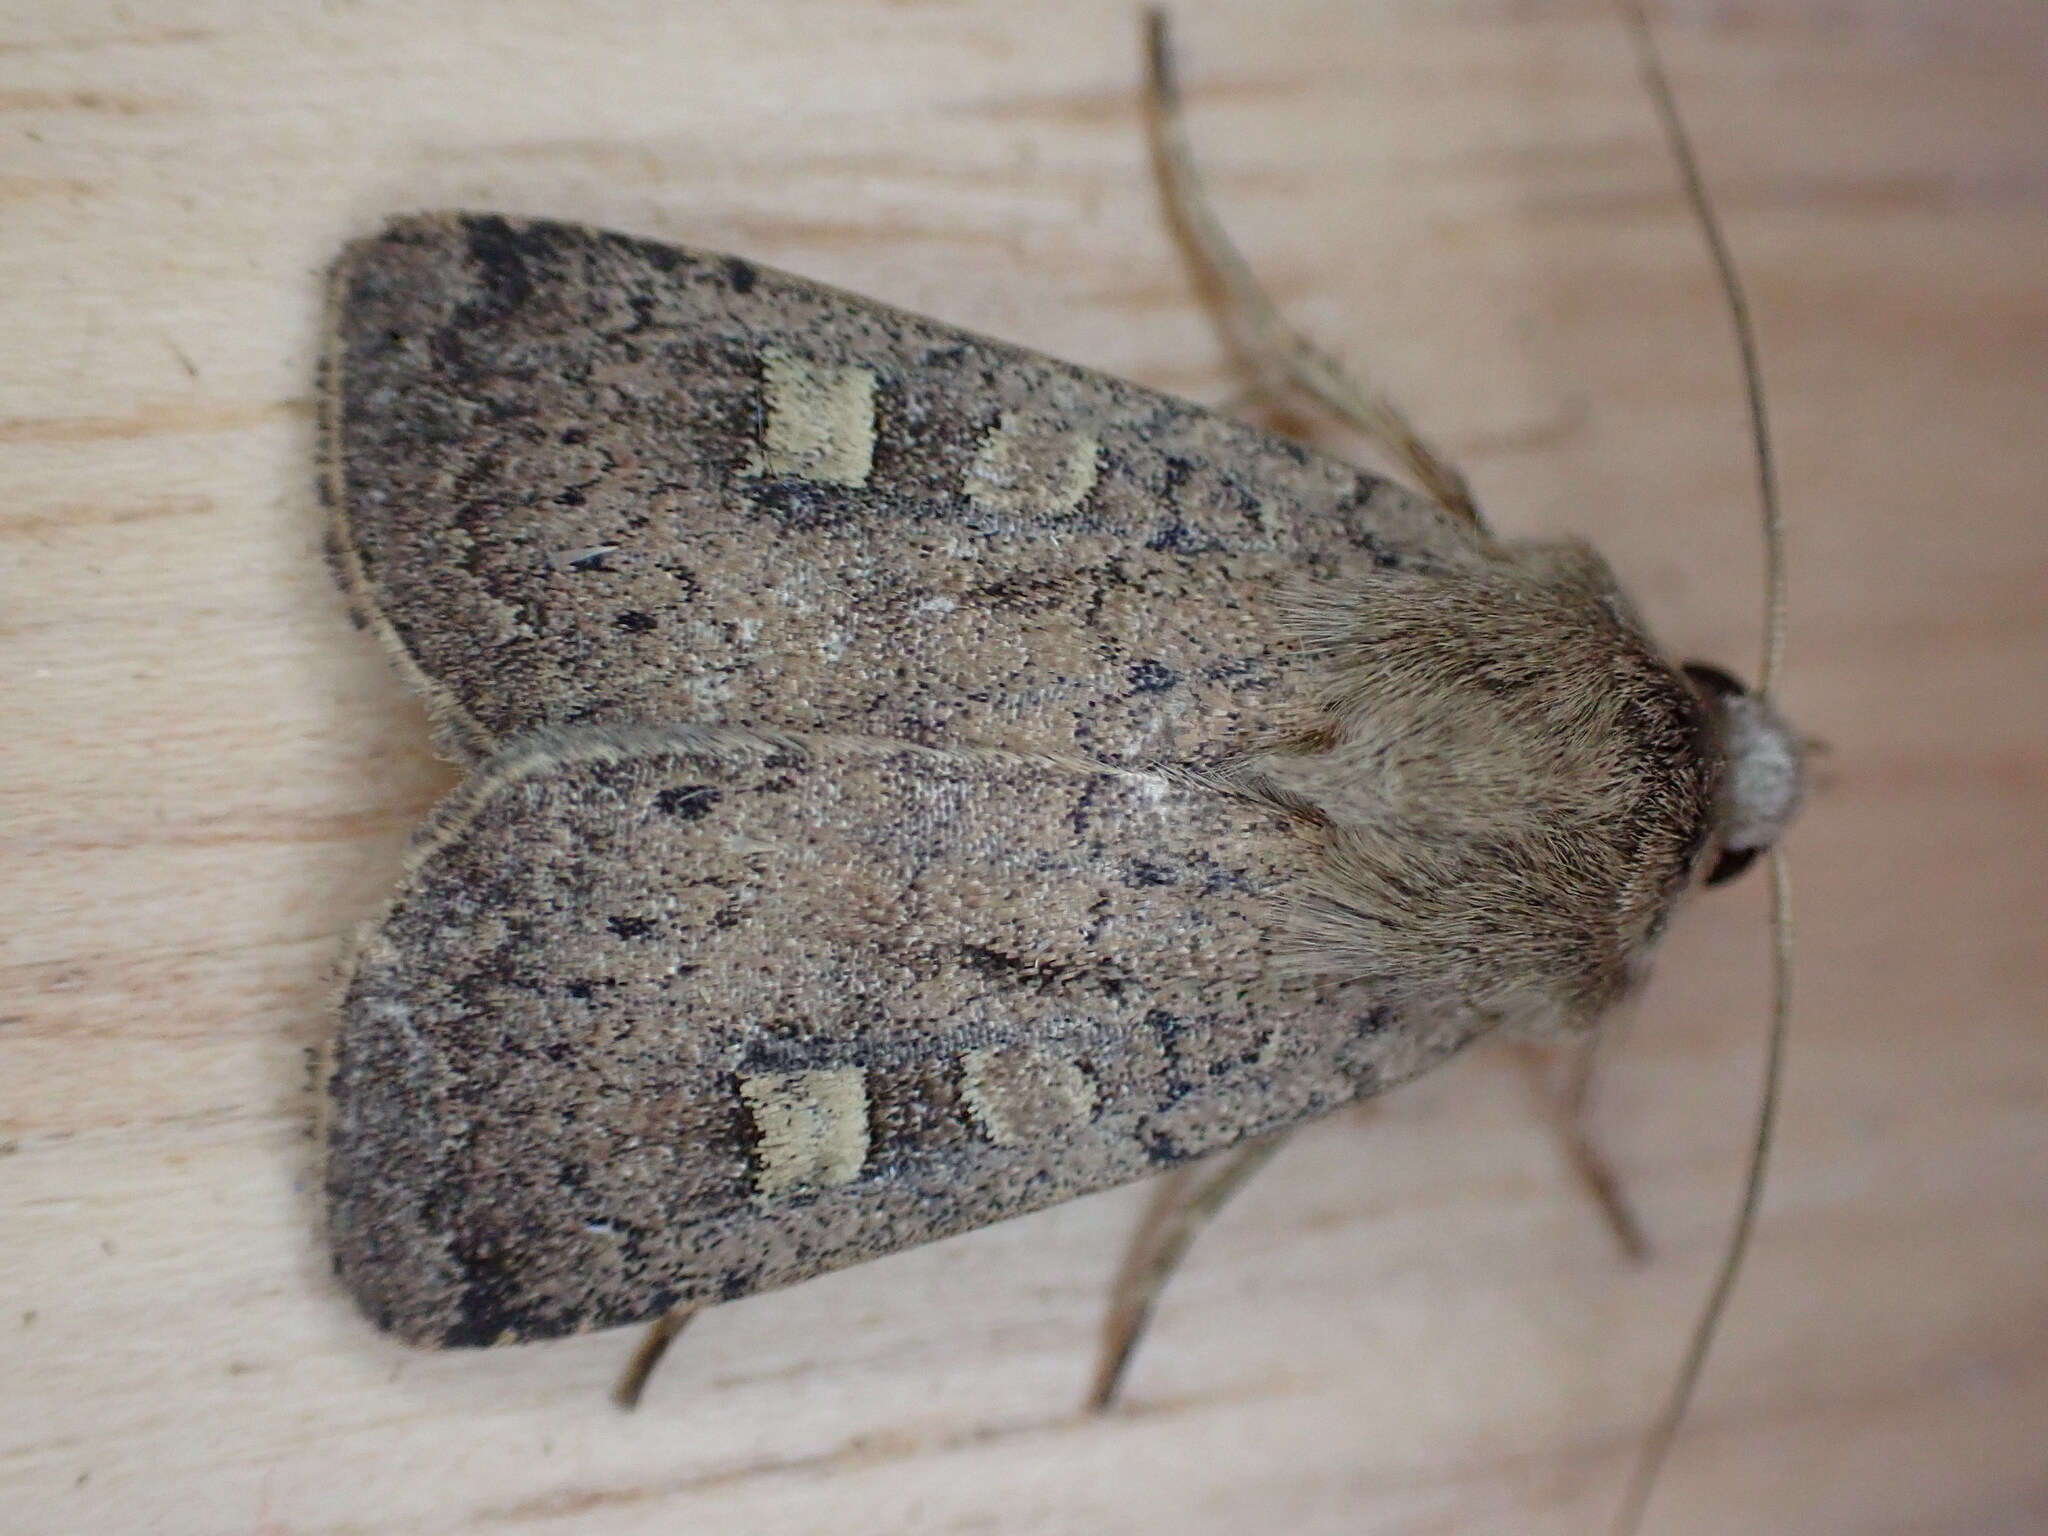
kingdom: Animalia
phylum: Arthropoda
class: Insecta
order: Lepidoptera
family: Noctuidae
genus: Xestia
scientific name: Xestia xanthographa
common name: Square-spot rustic
